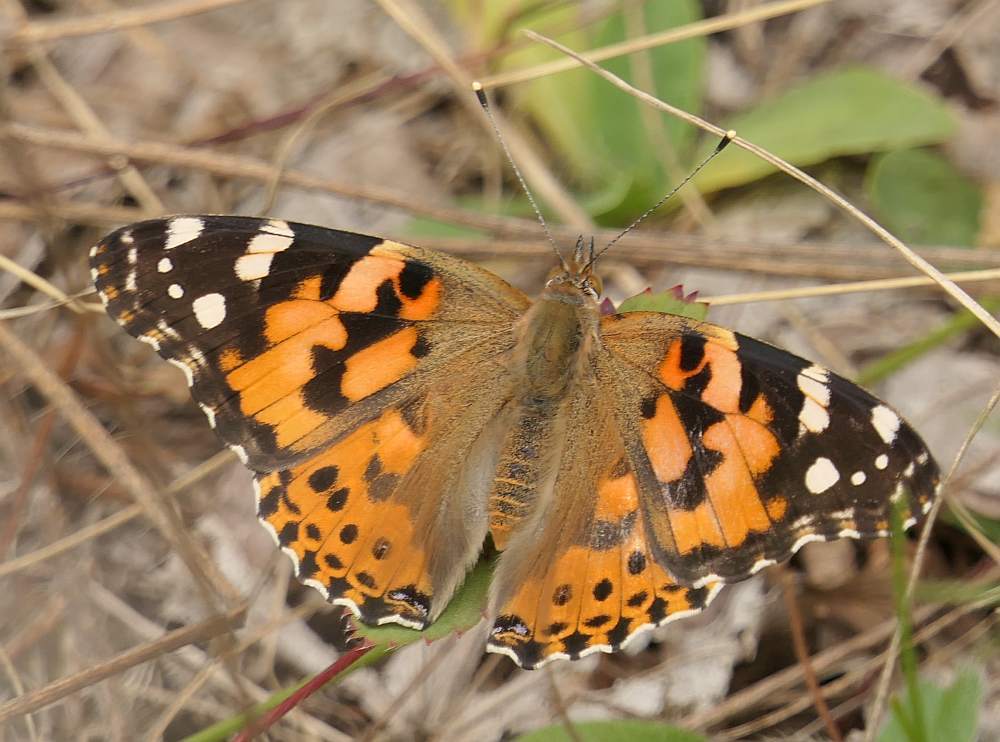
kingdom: Animalia
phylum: Arthropoda
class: Insecta
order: Lepidoptera
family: Nymphalidae
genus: Vanessa
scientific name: Vanessa cardui
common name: Painted lady
